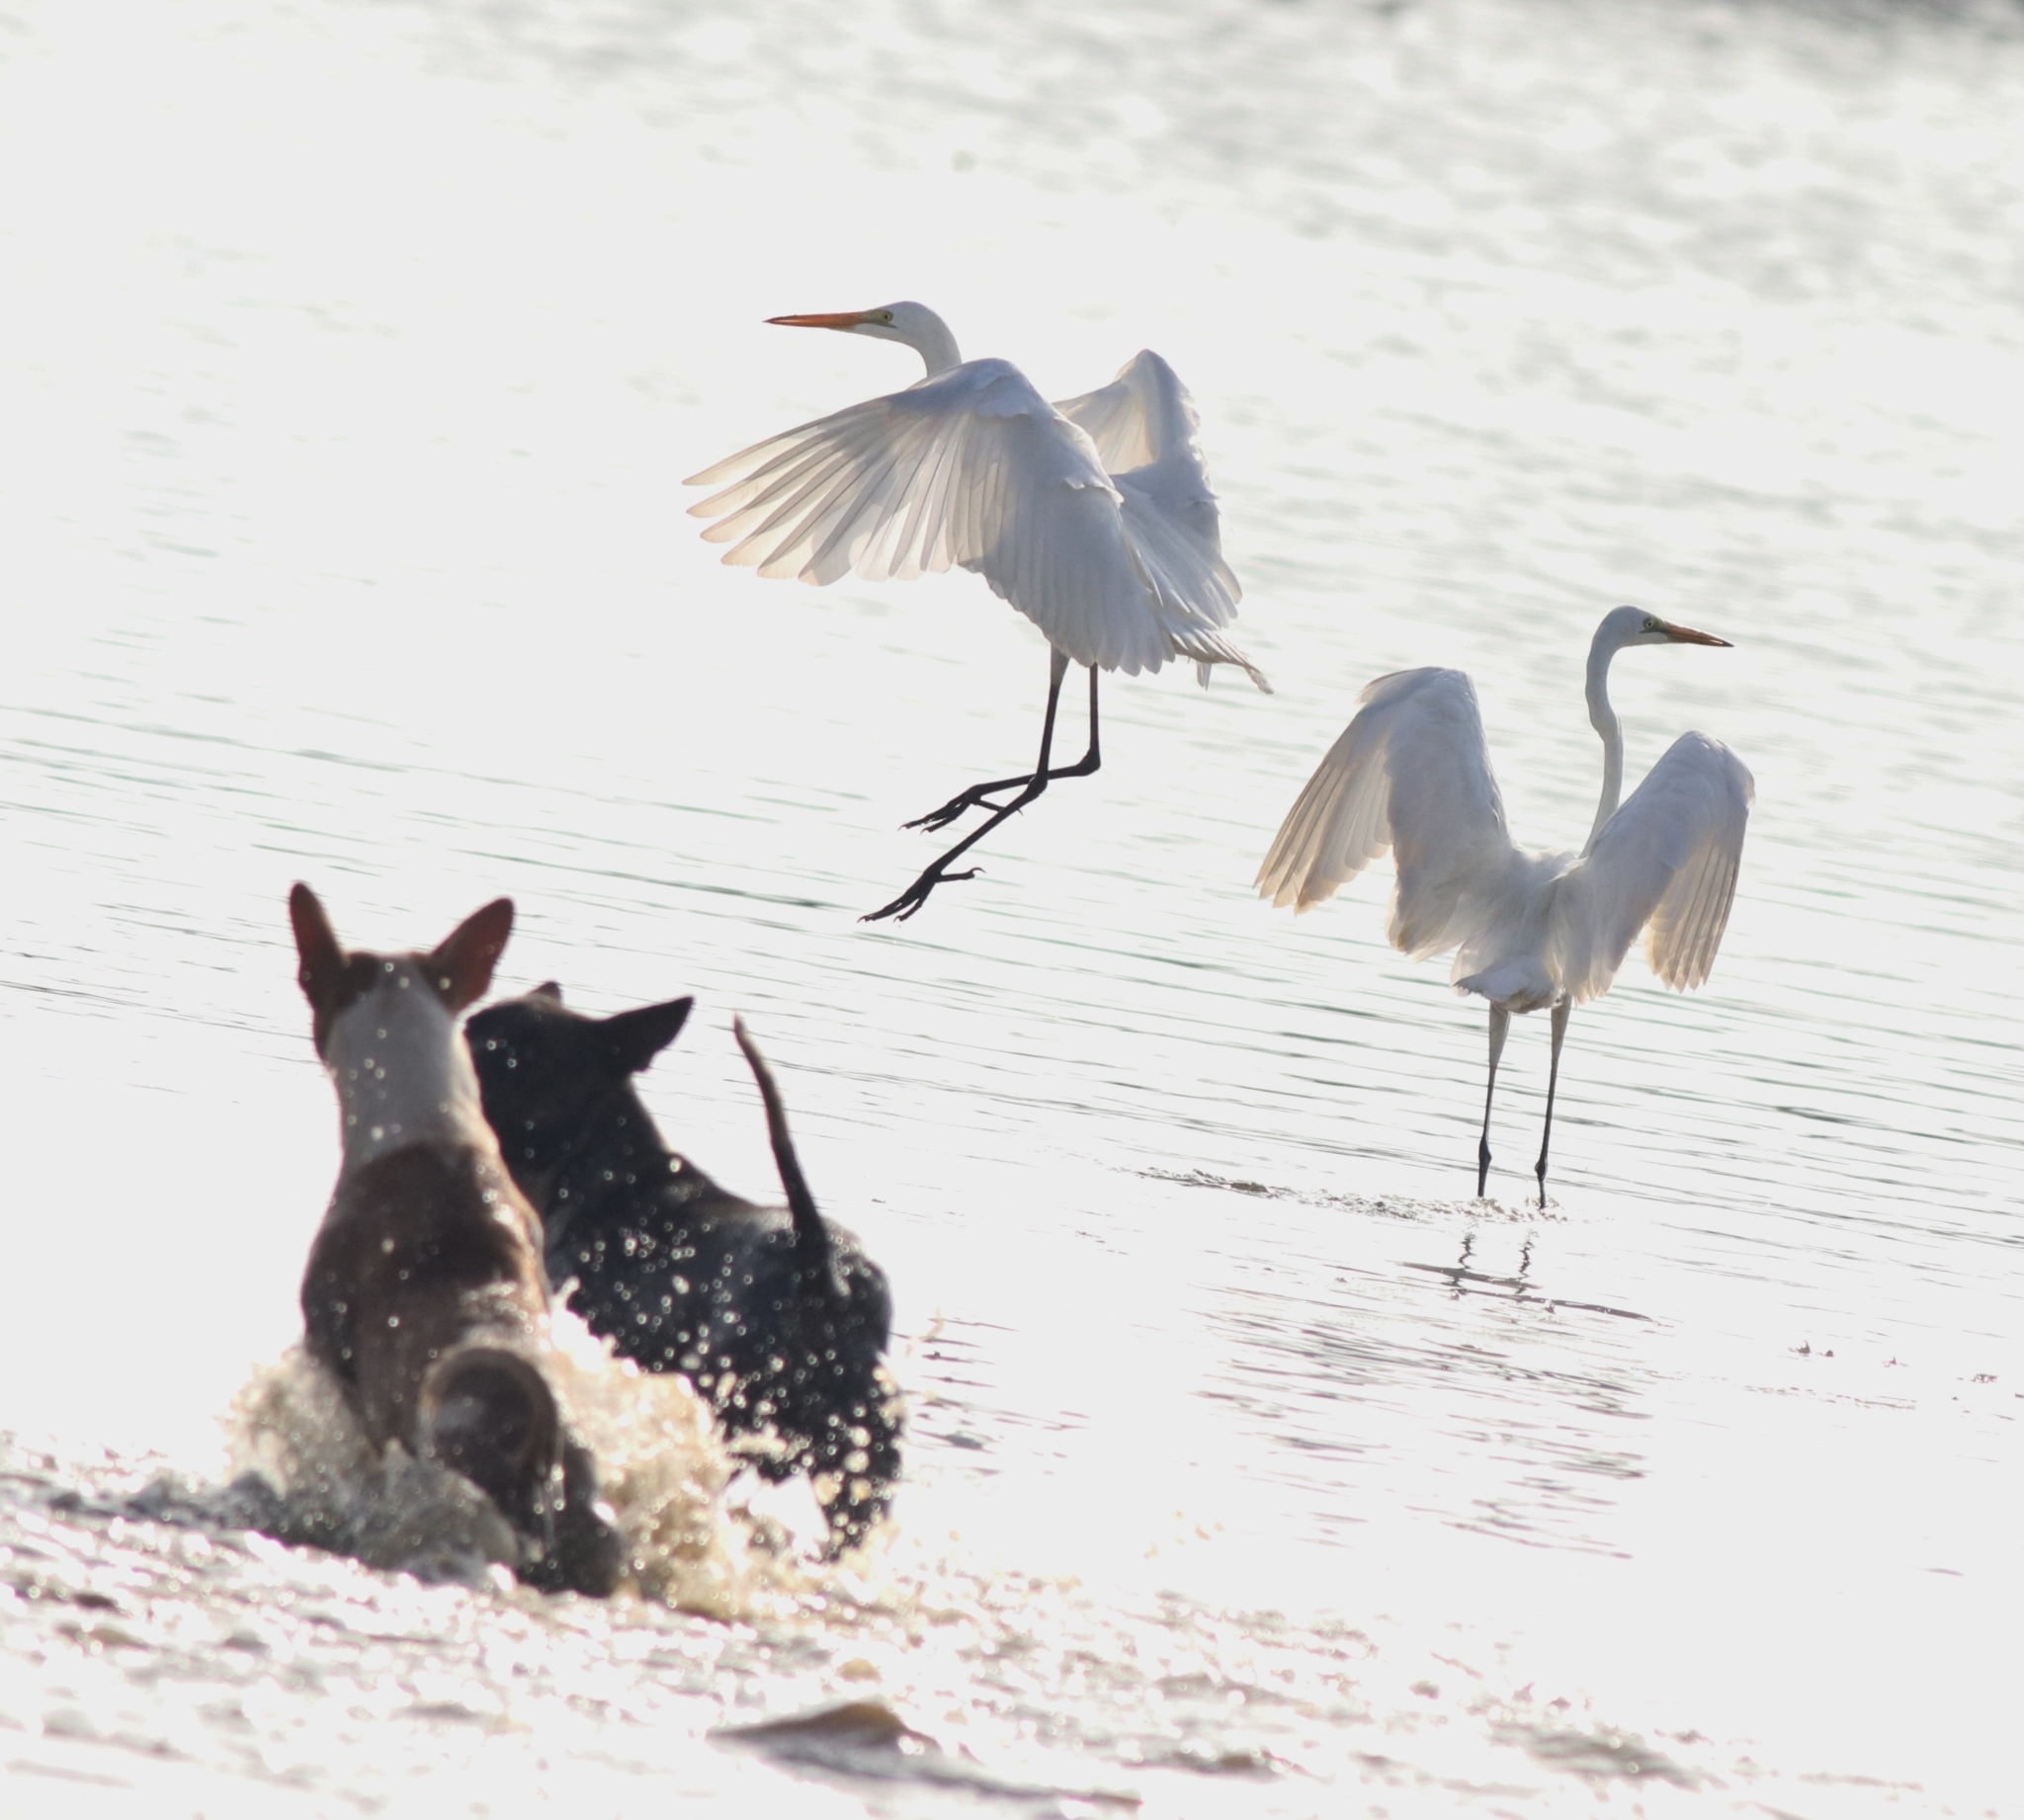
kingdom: Animalia
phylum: Chordata
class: Mammalia
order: Carnivora
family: Canidae
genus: Canis
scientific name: Canis lupus
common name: Gray wolf
